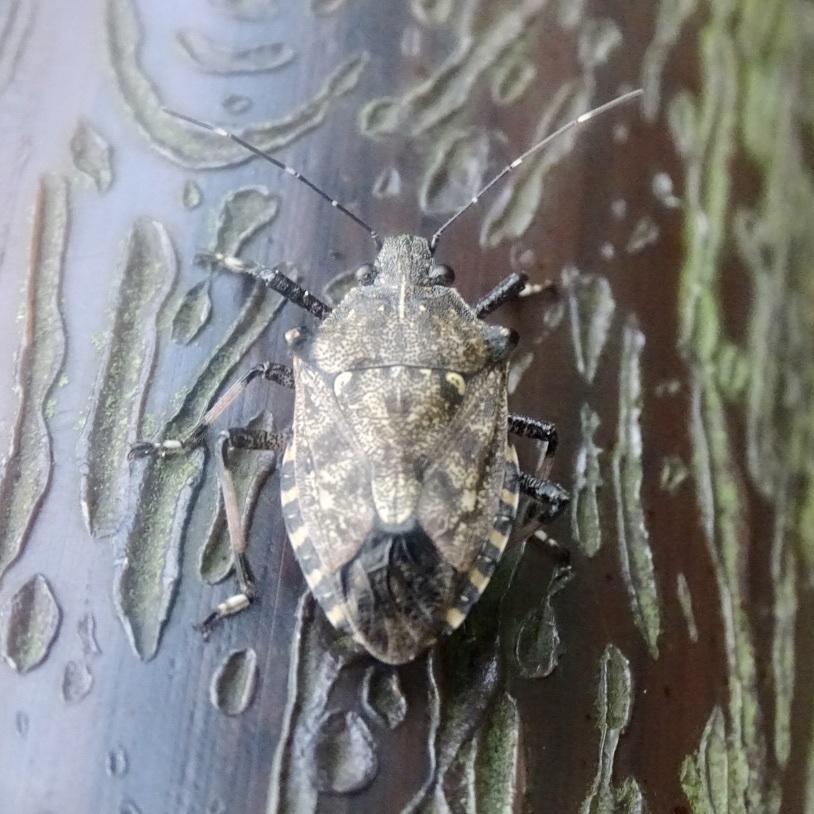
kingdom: Animalia
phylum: Arthropoda
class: Insecta
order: Hemiptera
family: Pentatomidae
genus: Dalpada
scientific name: Dalpada nodifera
